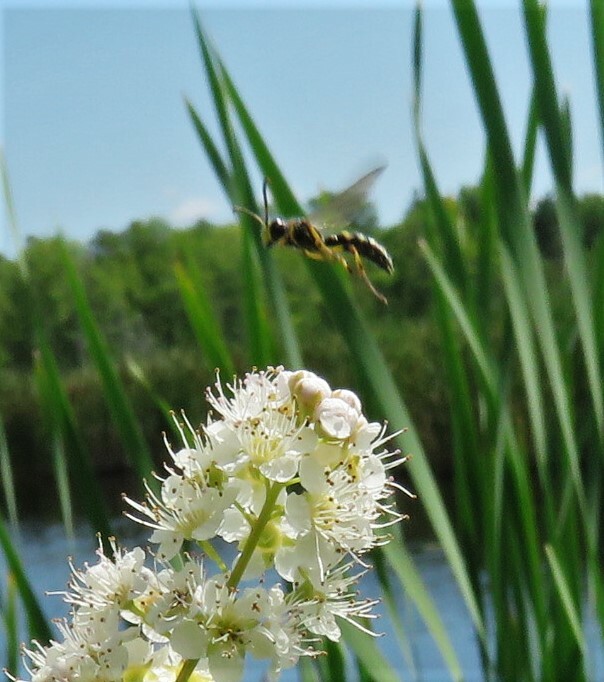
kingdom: Animalia
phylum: Arthropoda
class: Insecta
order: Hymenoptera
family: Crabronidae
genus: Cerceris
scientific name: Cerceris
